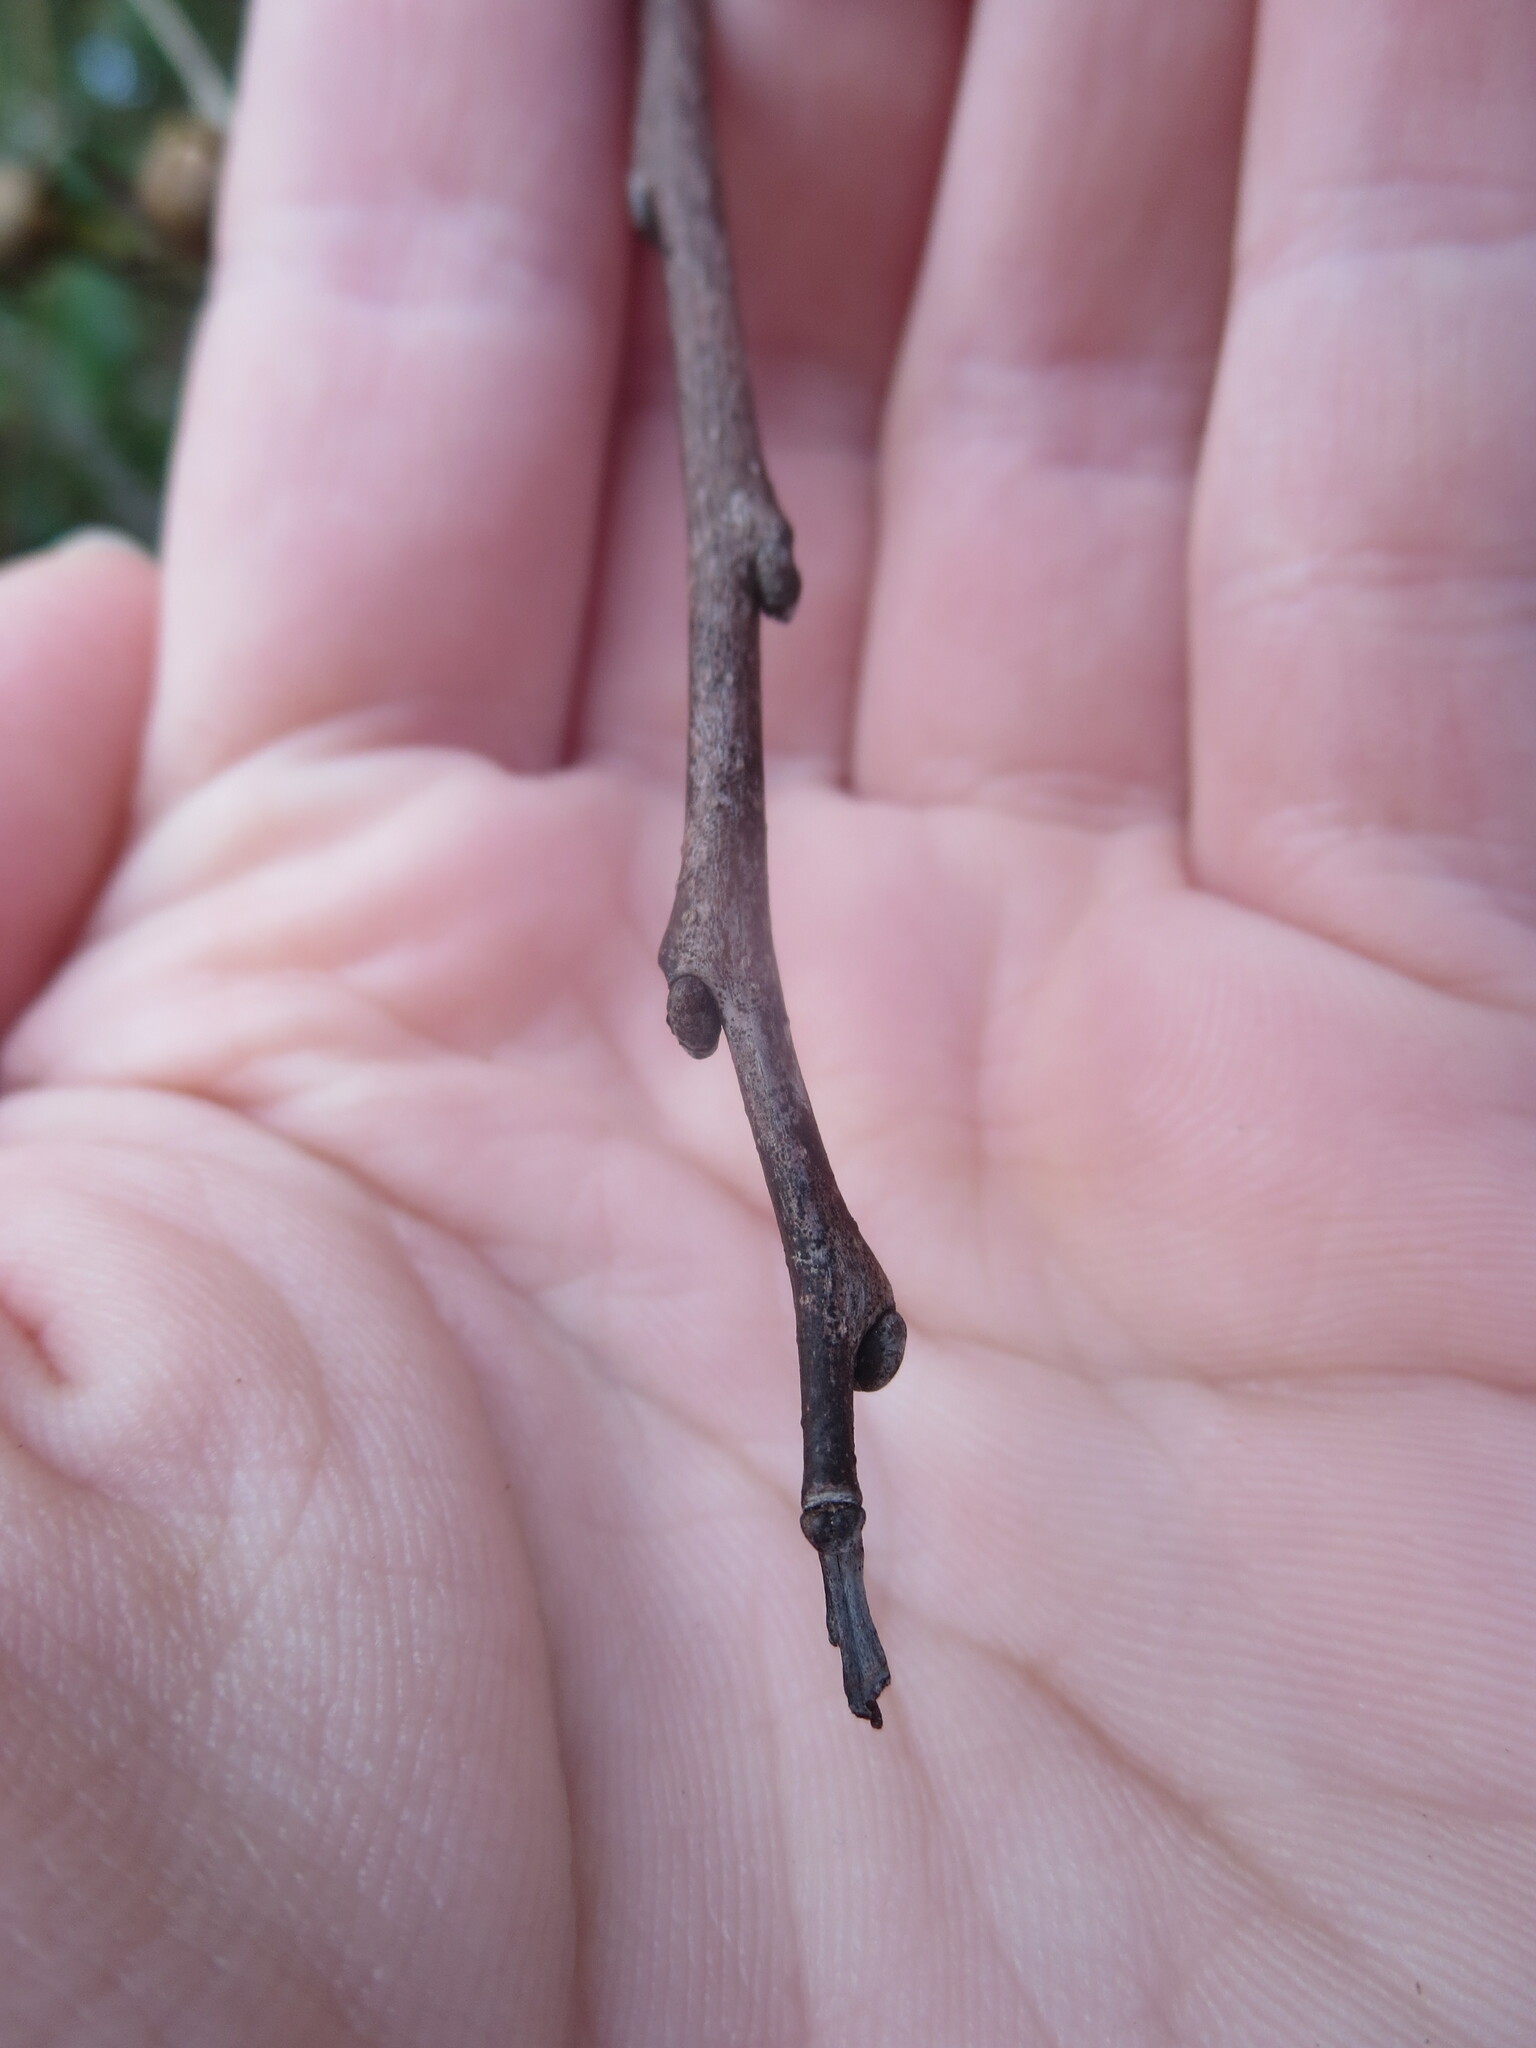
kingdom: Plantae
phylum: Tracheophyta
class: Magnoliopsida
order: Ericales
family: Ebenaceae
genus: Diospyros
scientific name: Diospyros virginiana
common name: Persimmon
